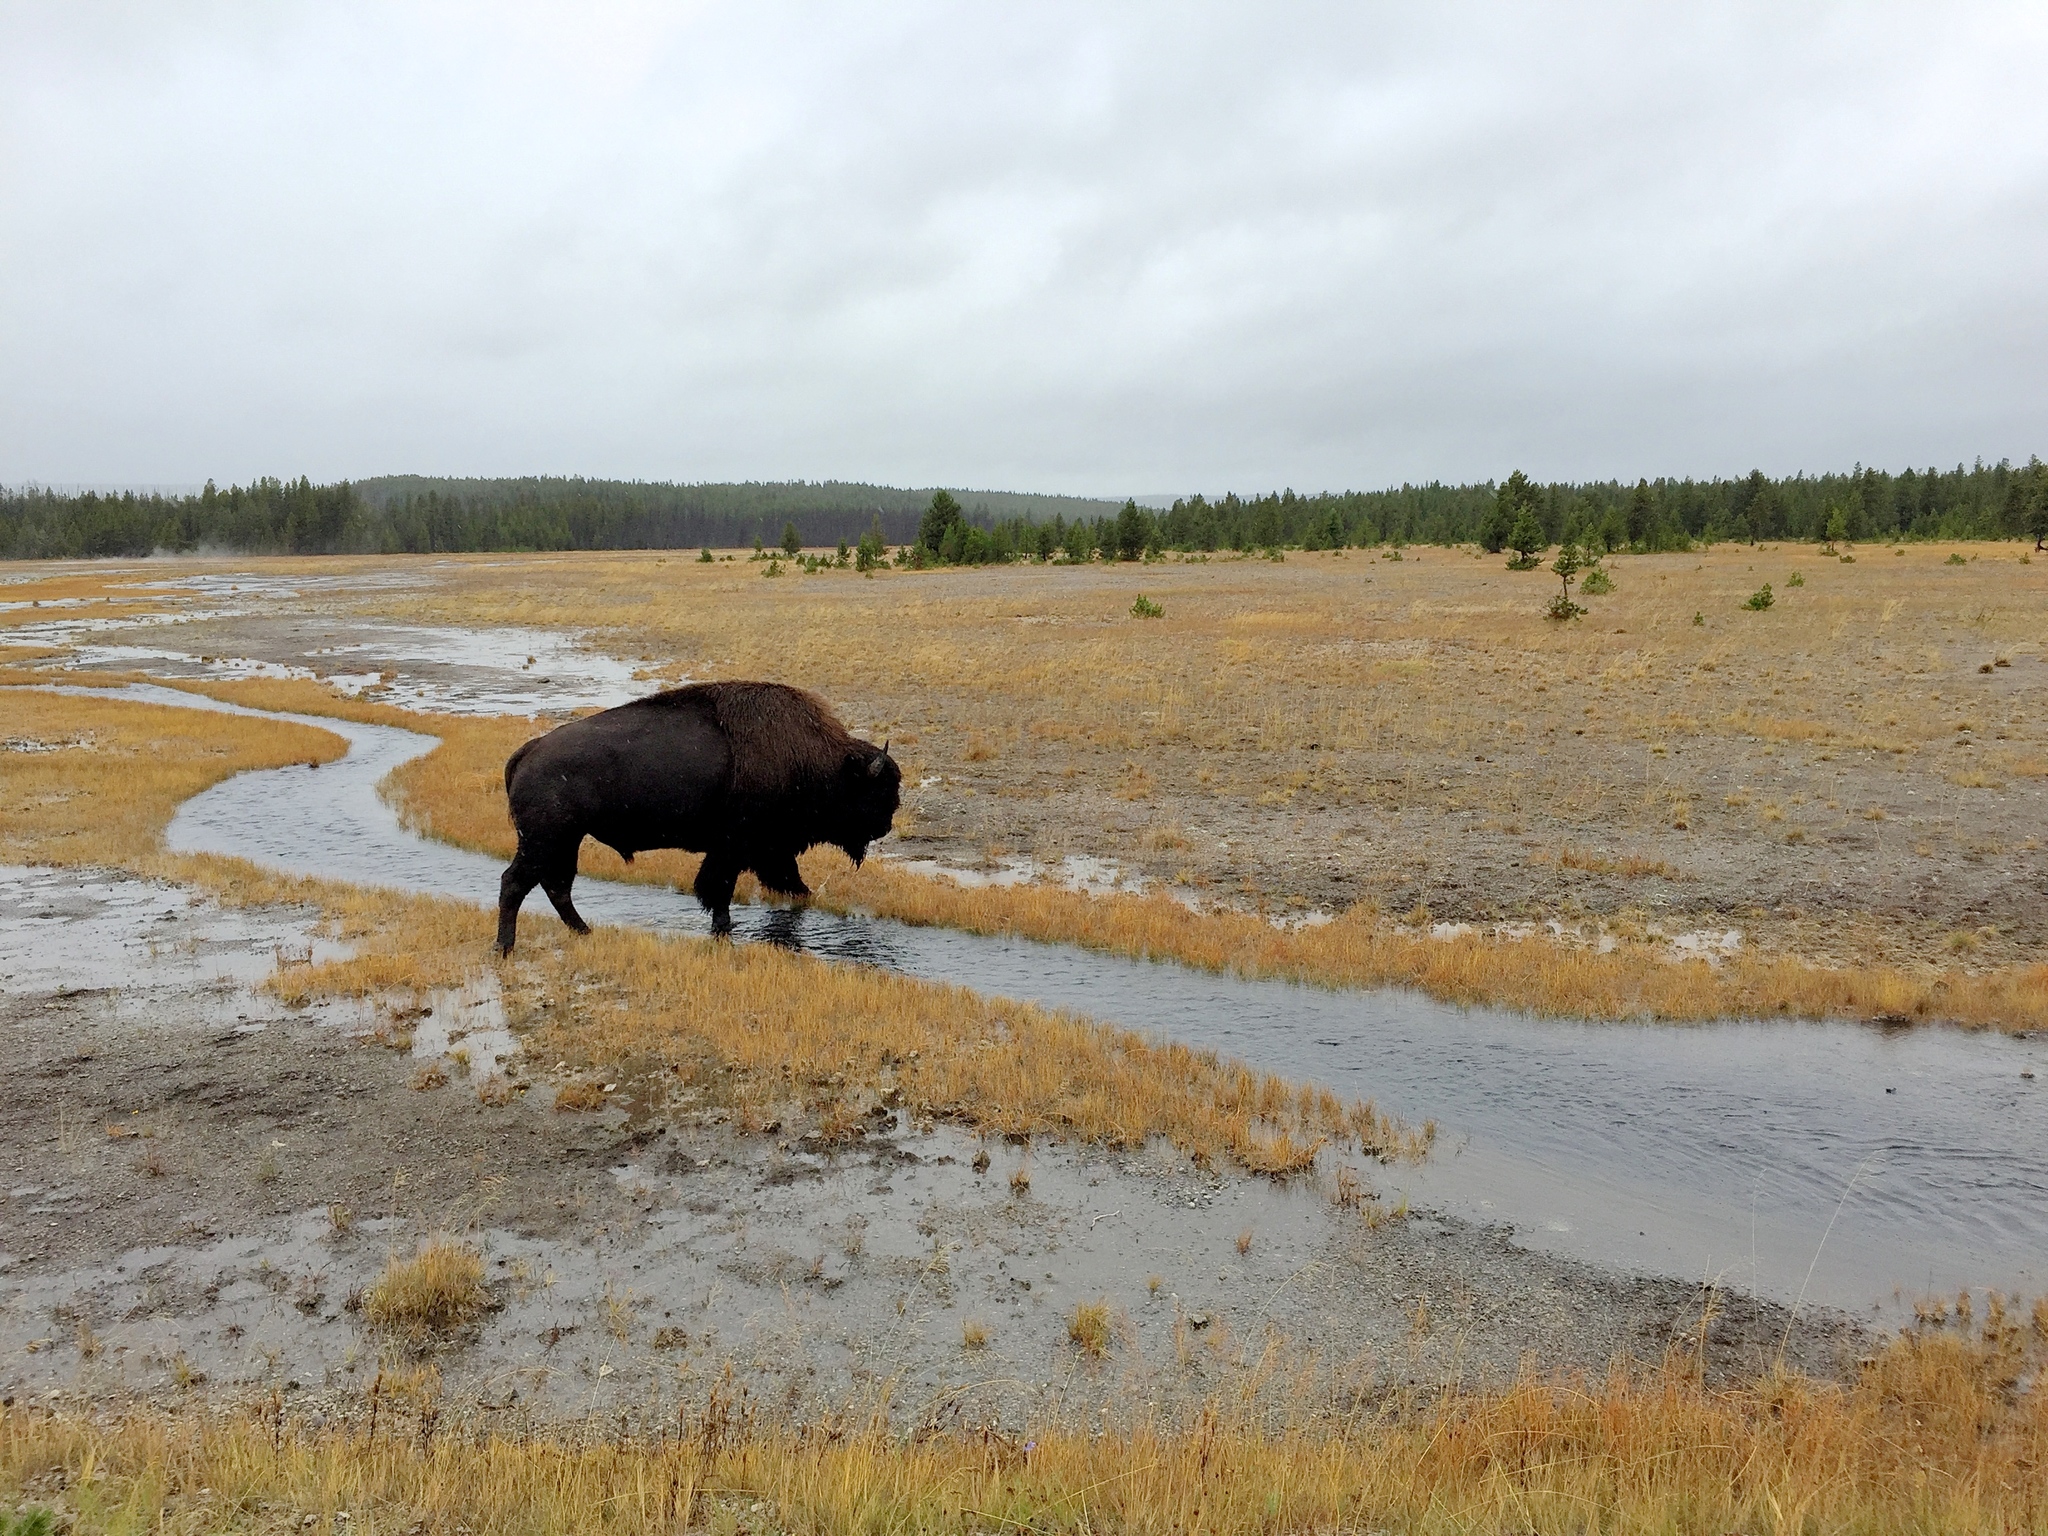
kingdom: Animalia
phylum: Chordata
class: Mammalia
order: Artiodactyla
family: Bovidae
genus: Bison
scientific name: Bison bison
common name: American bison
